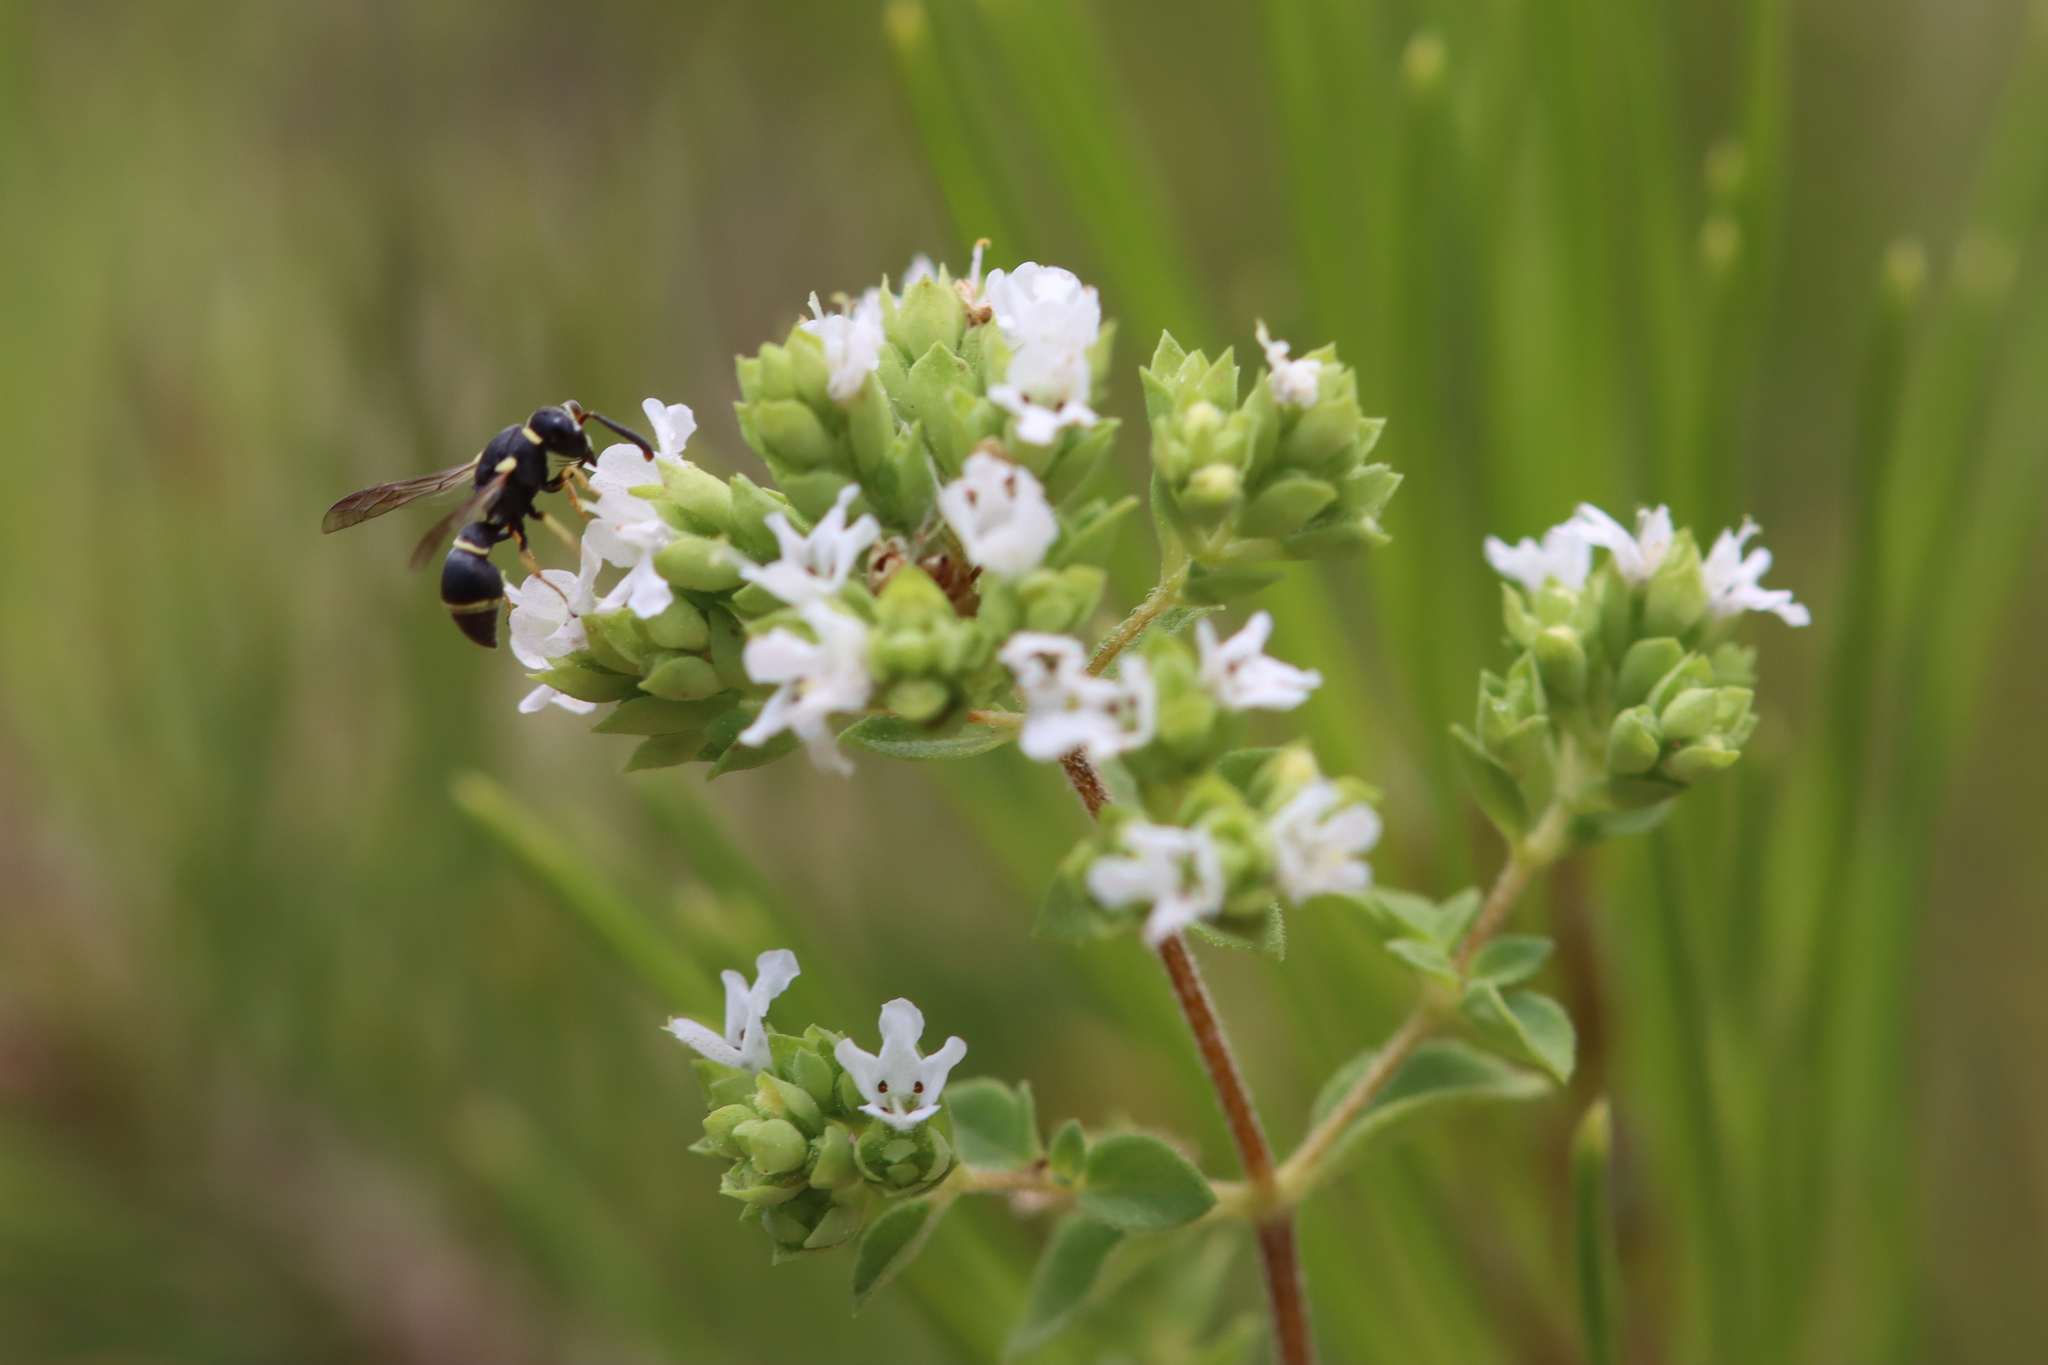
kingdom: Plantae
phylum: Tracheophyta
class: Magnoliopsida
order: Lamiales
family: Lamiaceae
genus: Origanum
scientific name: Origanum vulgare
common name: Wild marjoram
